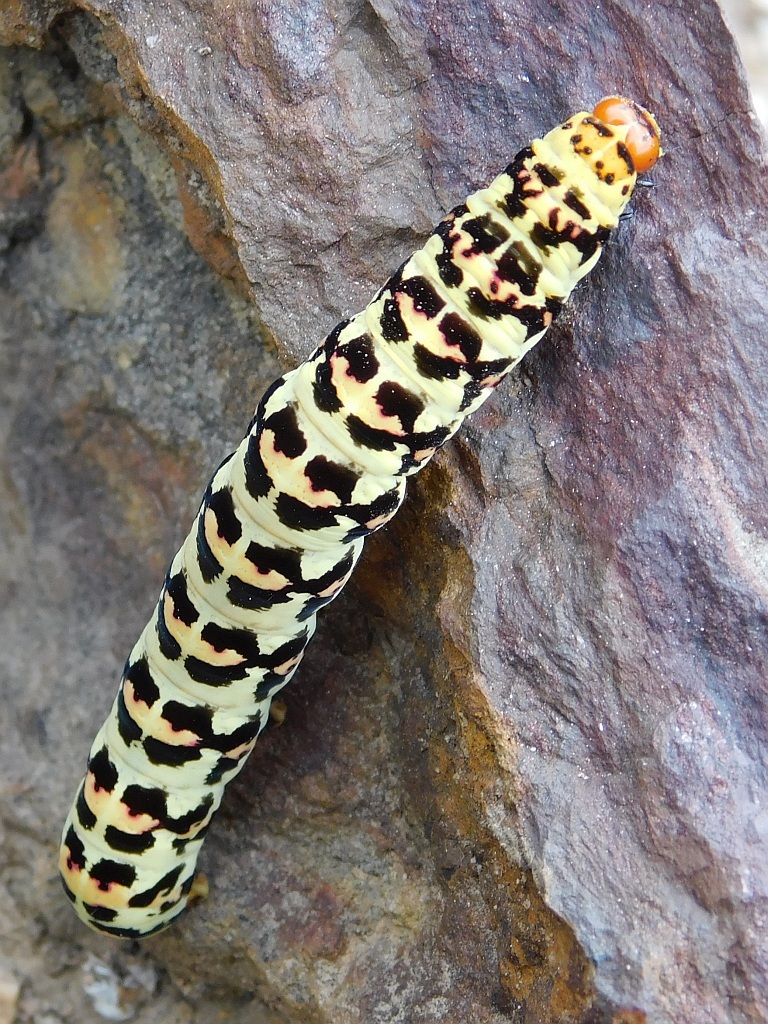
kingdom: Animalia
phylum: Arthropoda
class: Insecta
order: Lepidoptera
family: Noctuidae
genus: Diaphone
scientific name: Diaphone eumela
